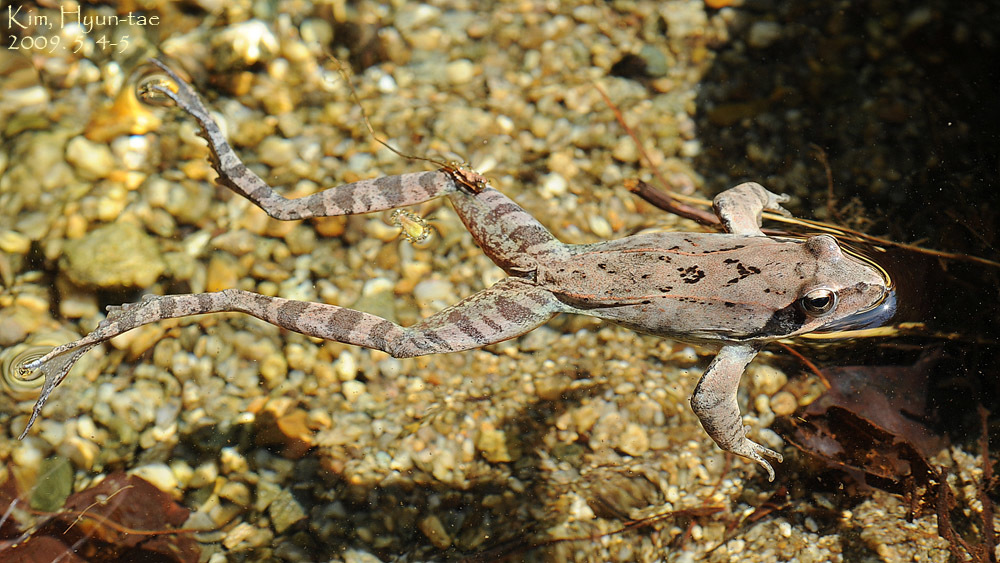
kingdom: Animalia
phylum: Chordata
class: Amphibia
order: Anura
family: Ranidae
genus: Rana
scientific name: Rana uenoi
